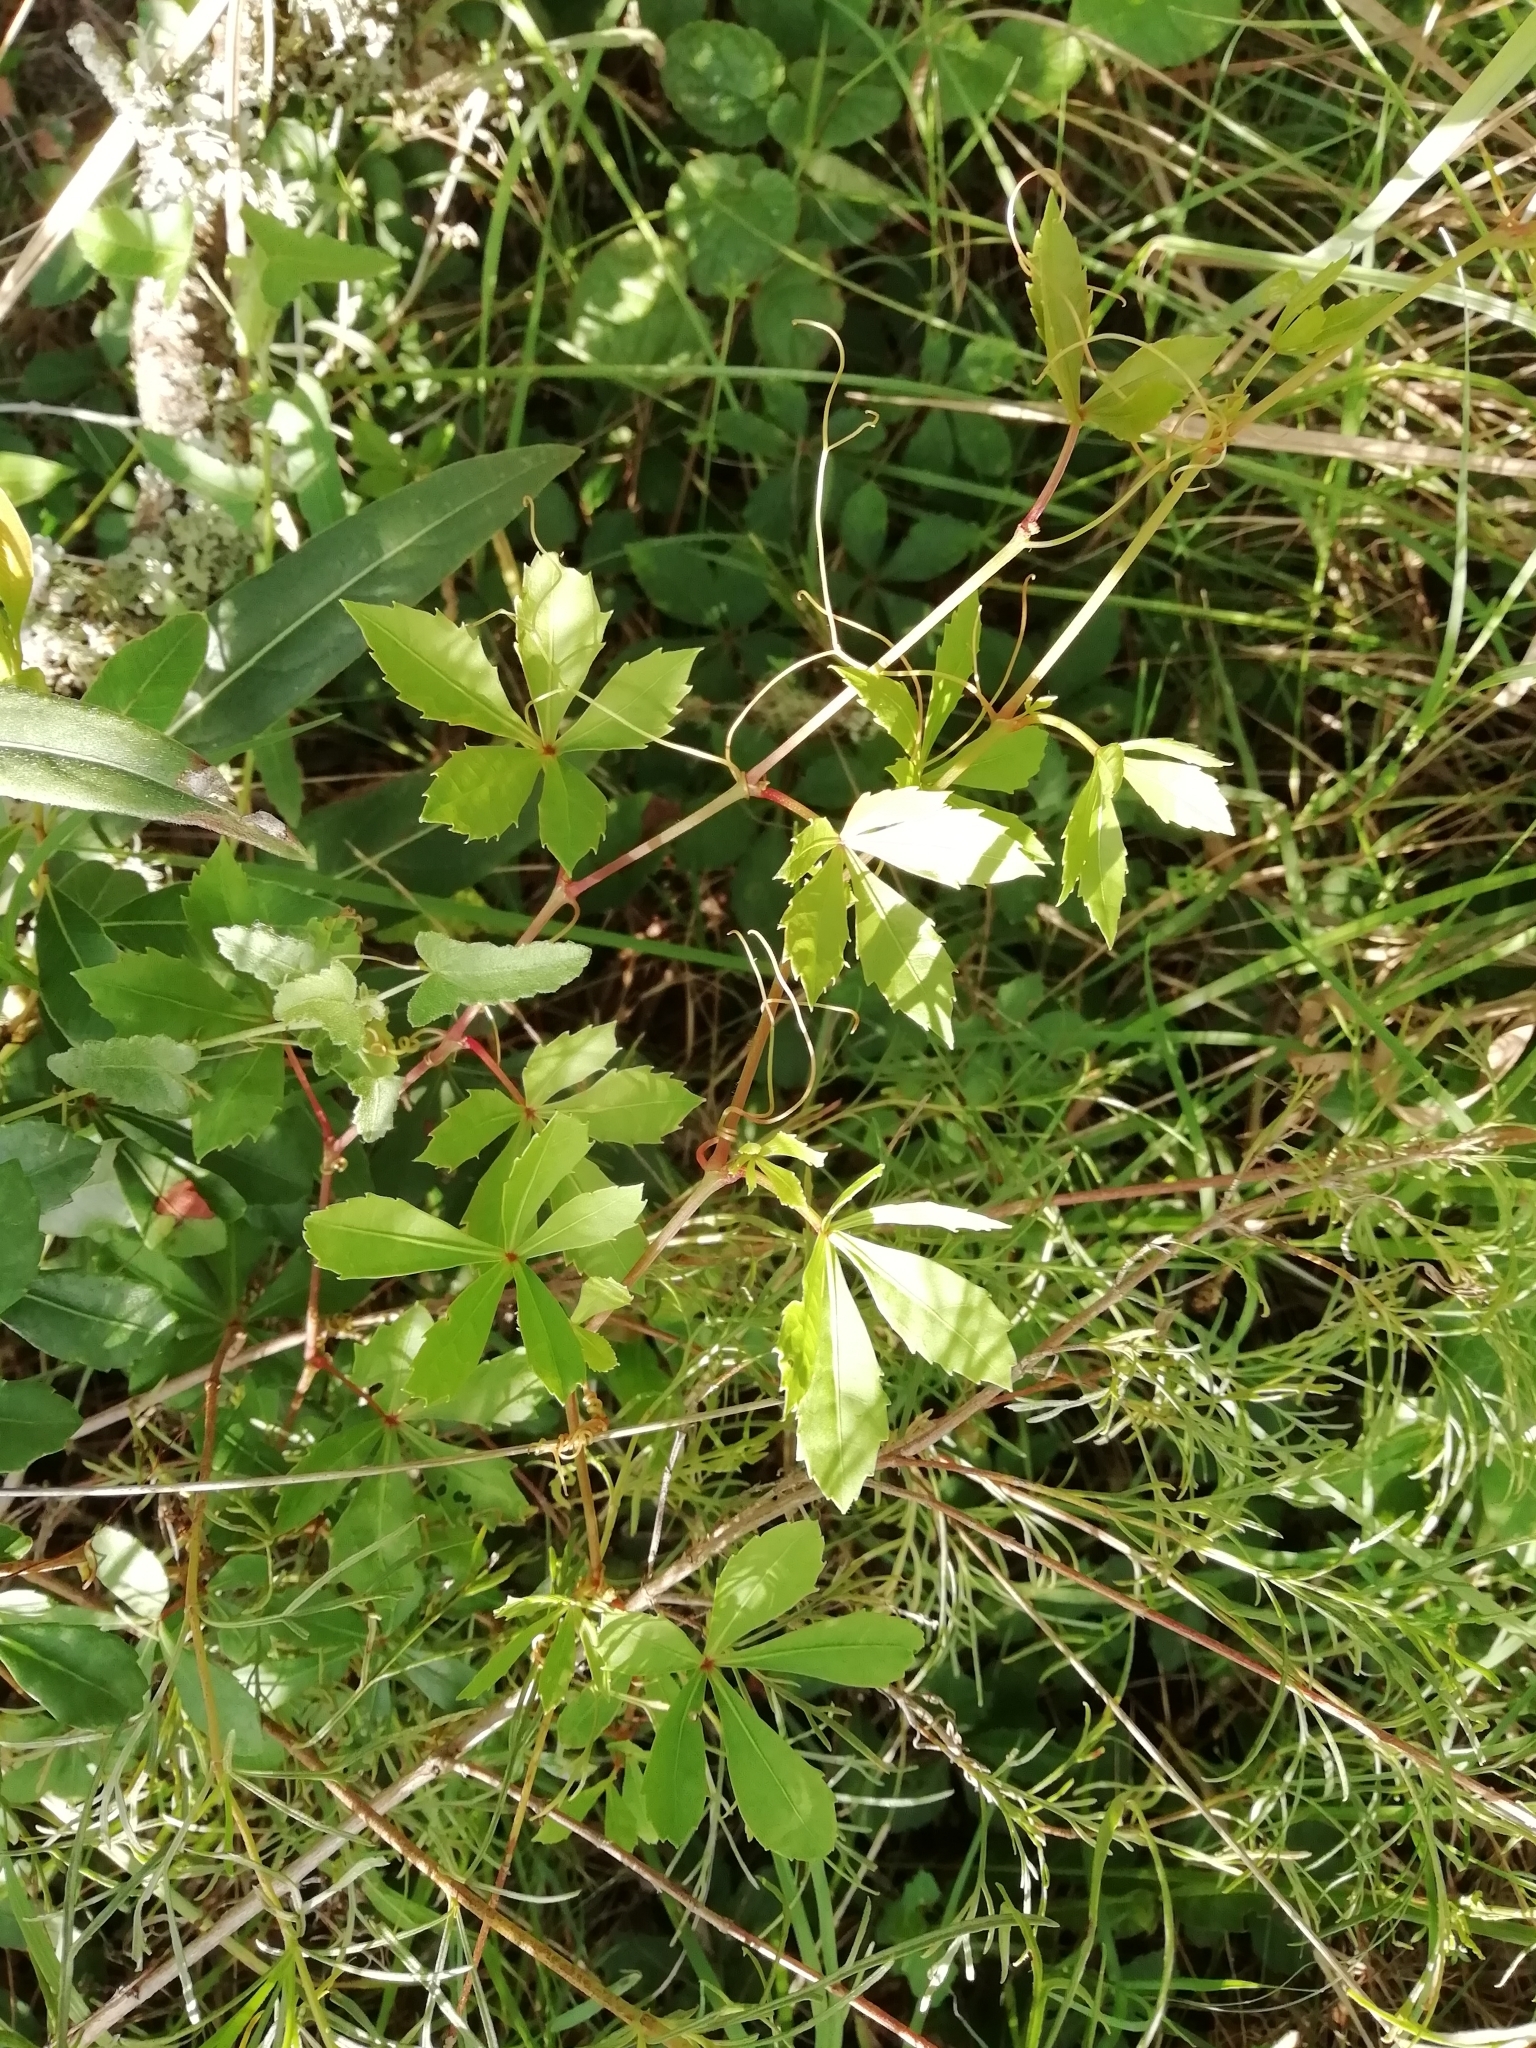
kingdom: Plantae
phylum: Tracheophyta
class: Magnoliopsida
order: Vitales
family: Vitaceae
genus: Clematicissus
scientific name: Clematicissus striata
